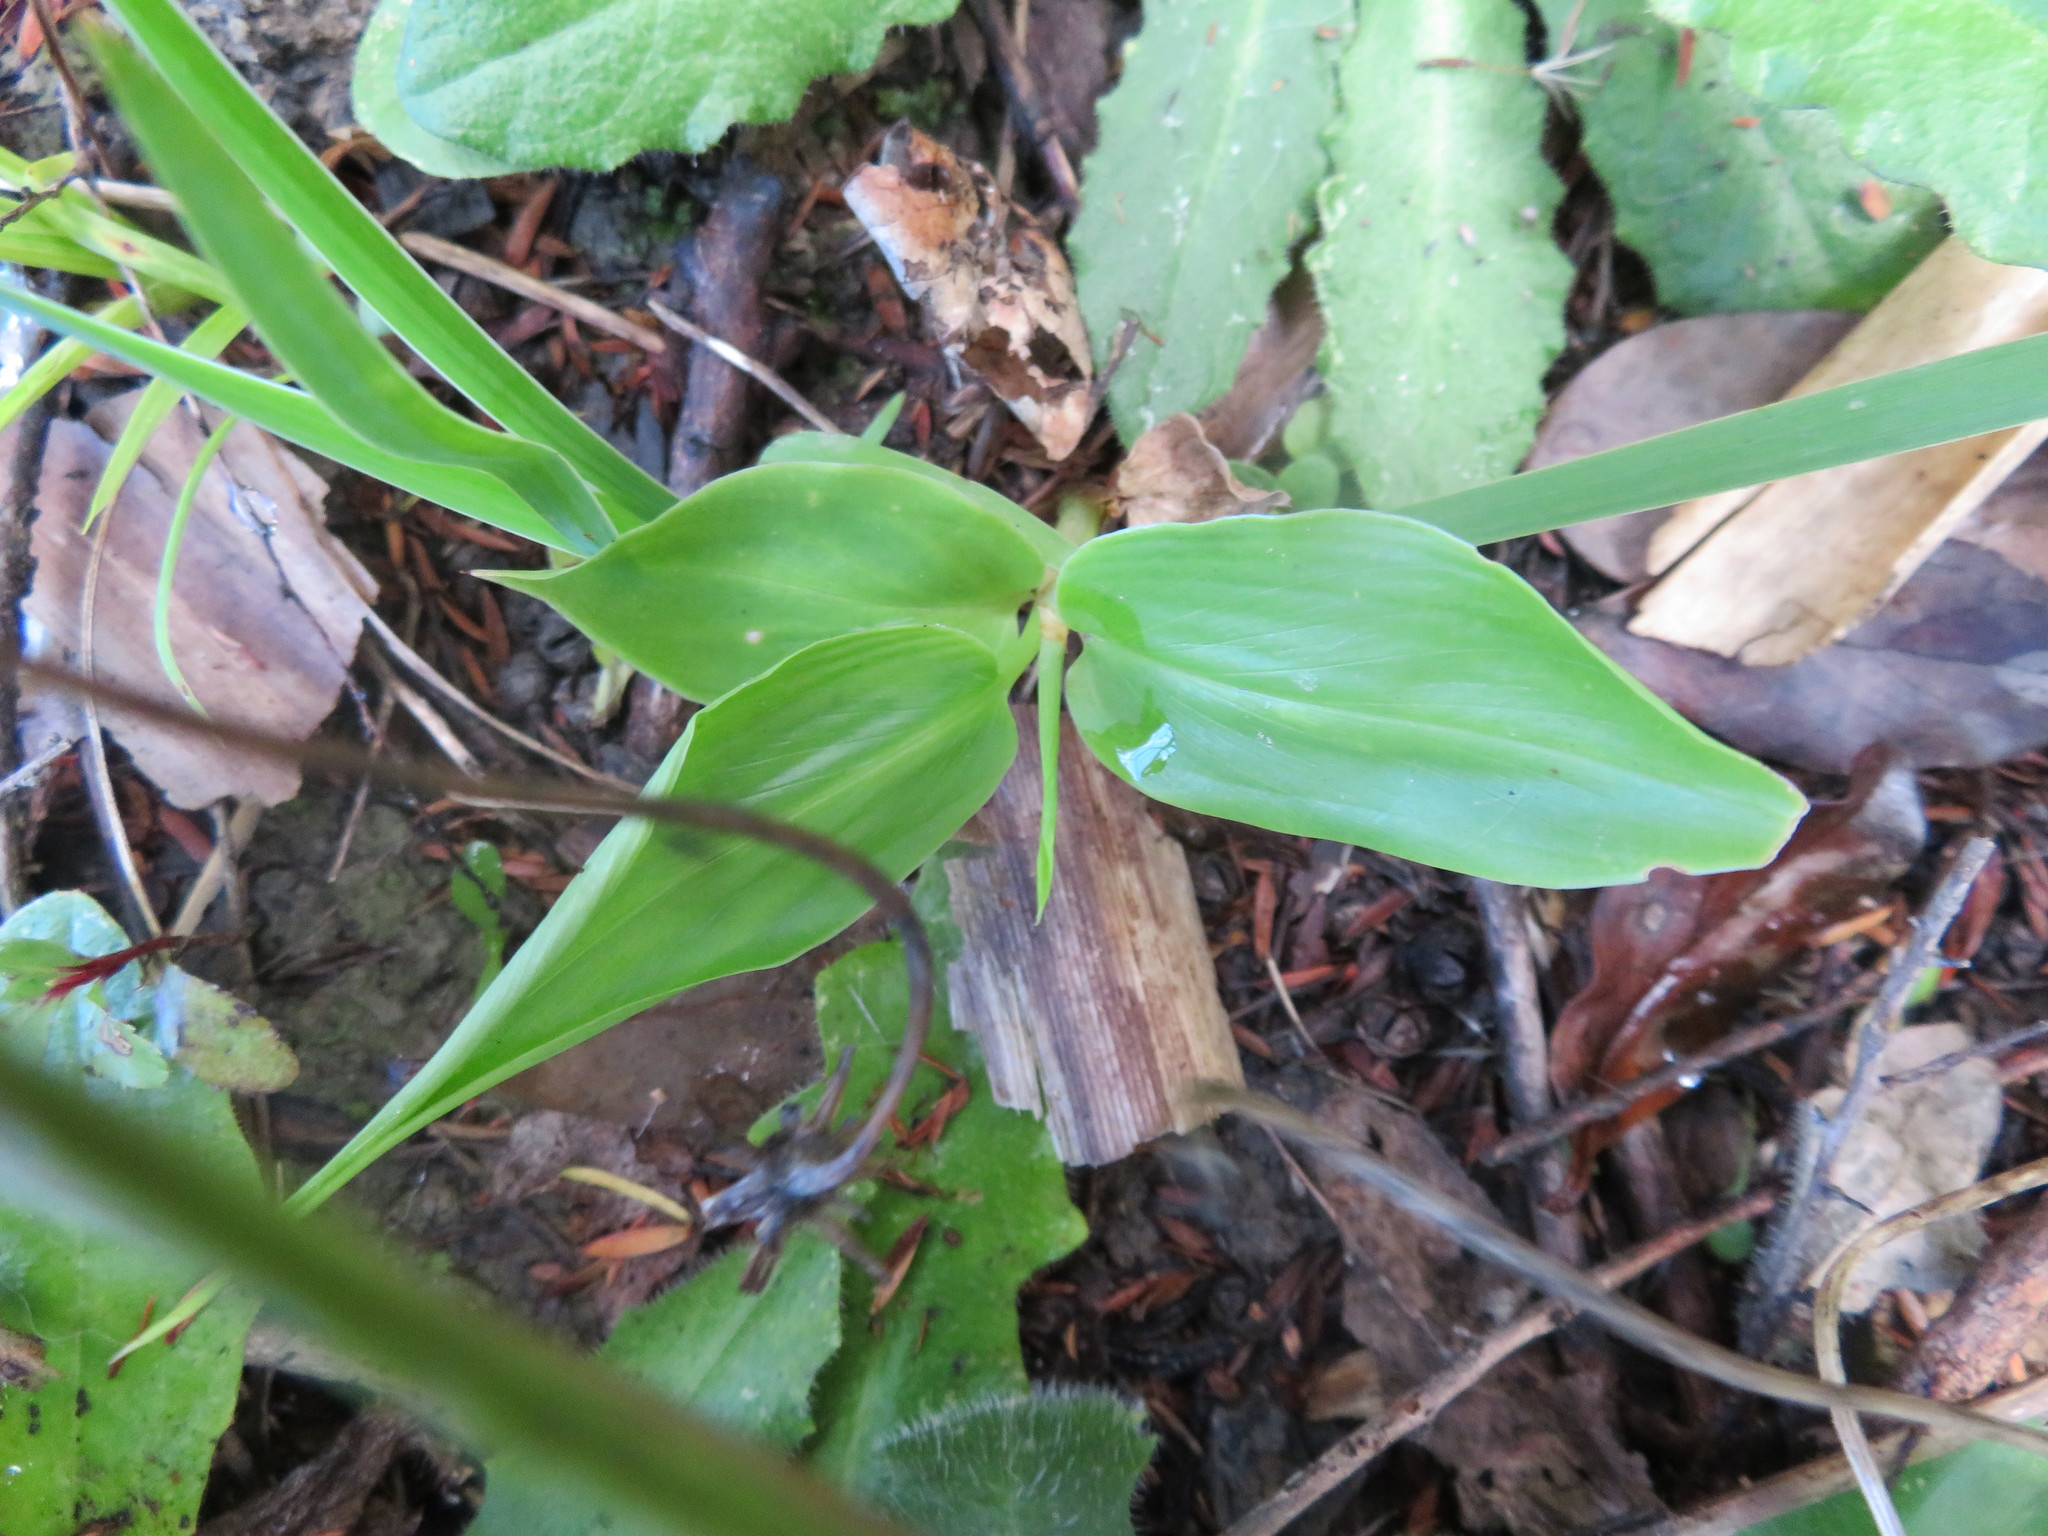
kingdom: Plantae
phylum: Tracheophyta
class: Liliopsida
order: Zingiberales
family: Zingiberaceae
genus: Hedychium
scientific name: Hedychium gardnerianum
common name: Himalayan ginger
